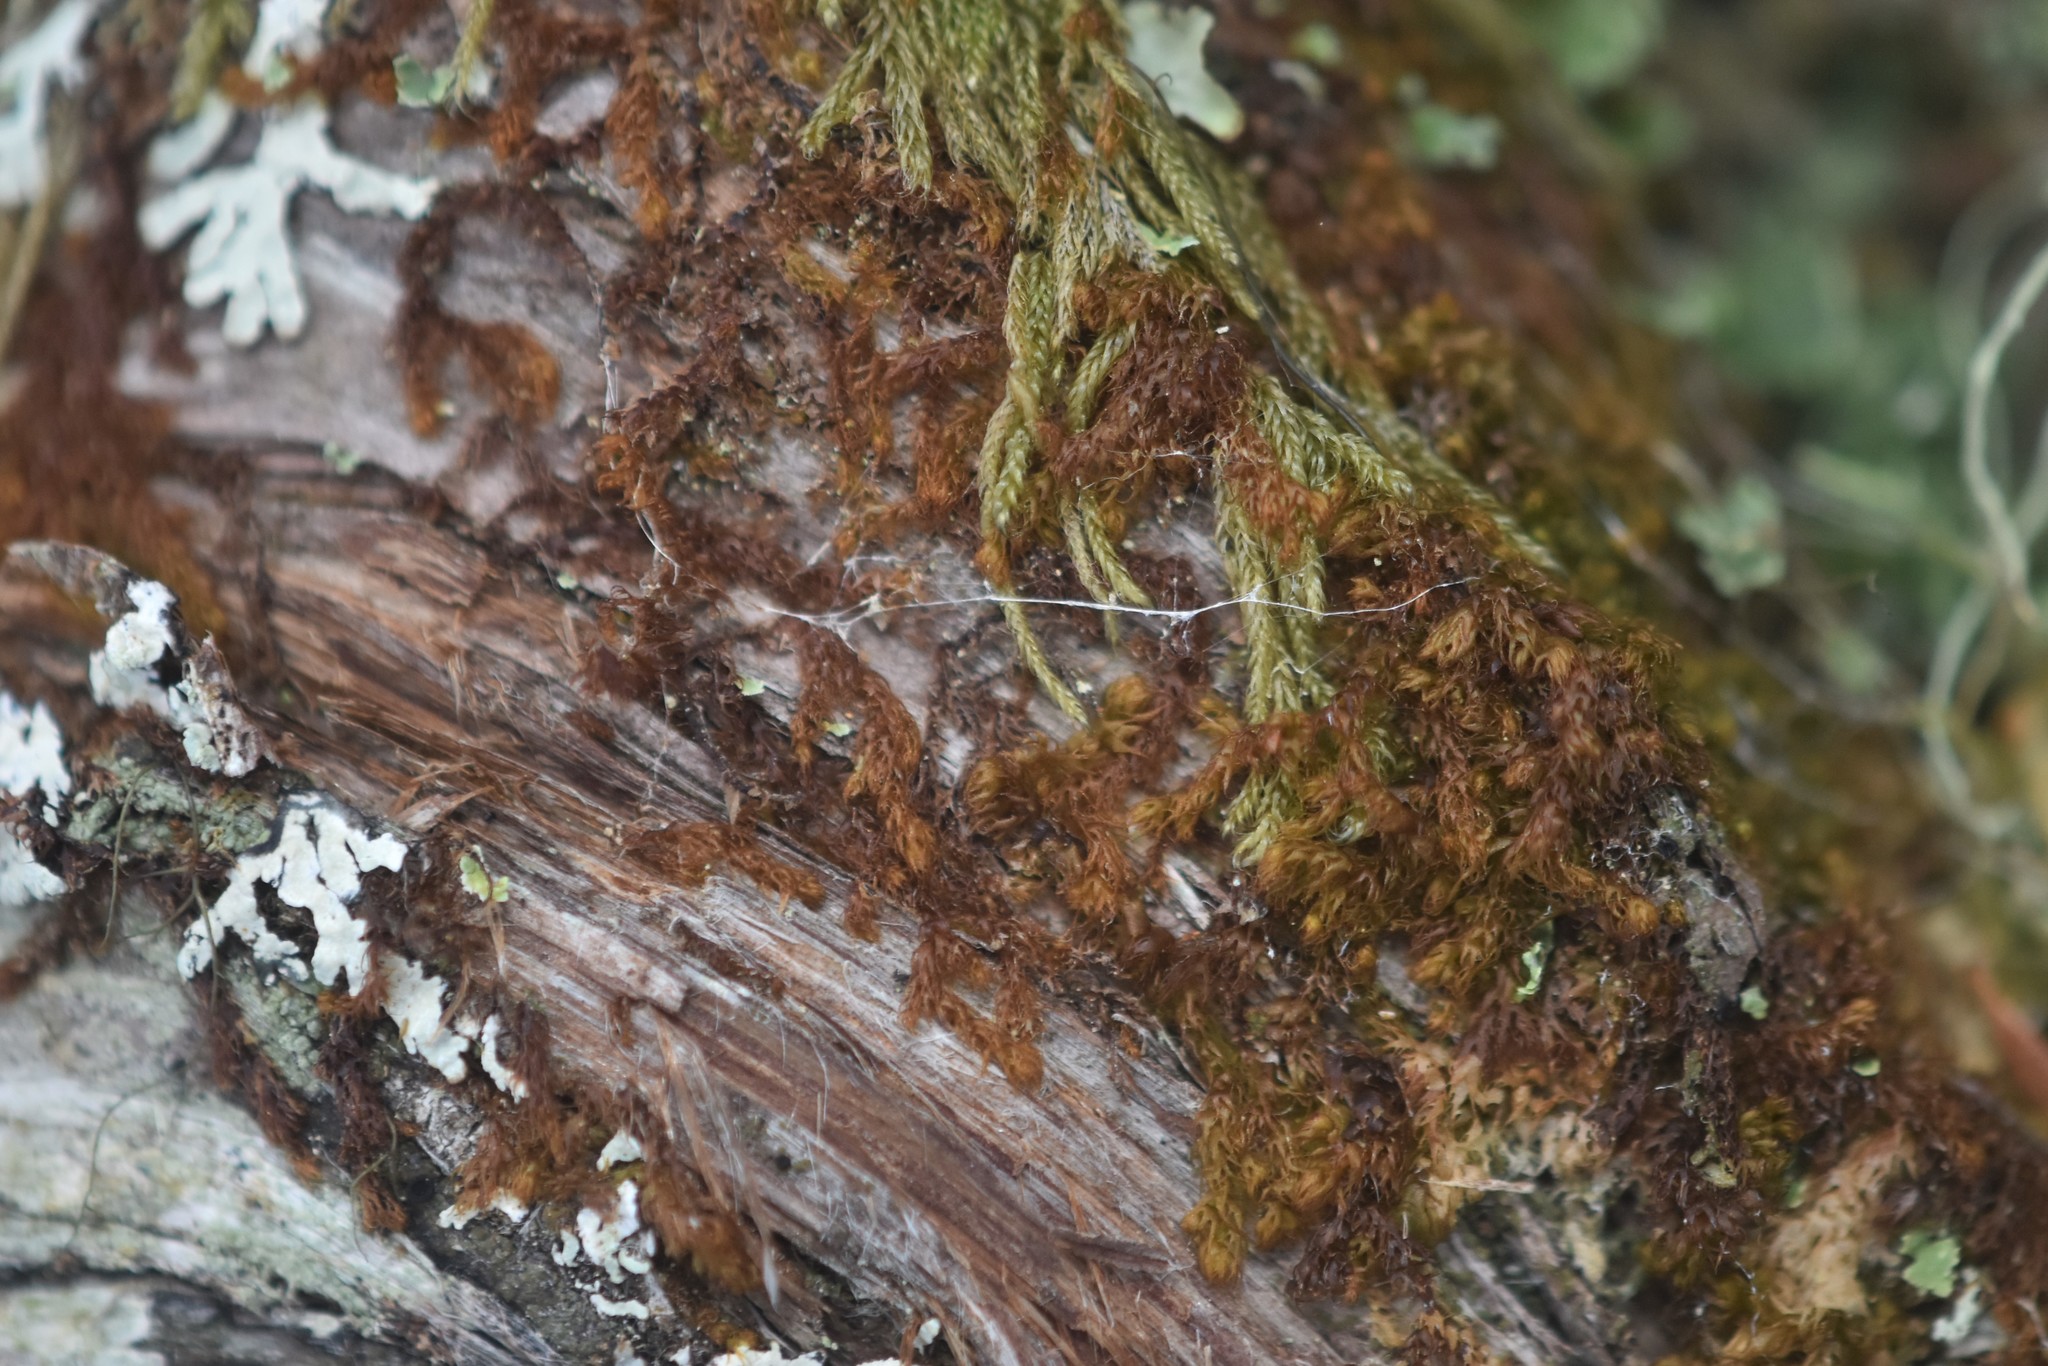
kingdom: Plantae
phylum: Marchantiophyta
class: Jungermanniopsida
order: Ptilidiales
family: Ptilidiaceae
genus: Ptilidium
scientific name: Ptilidium californicum
